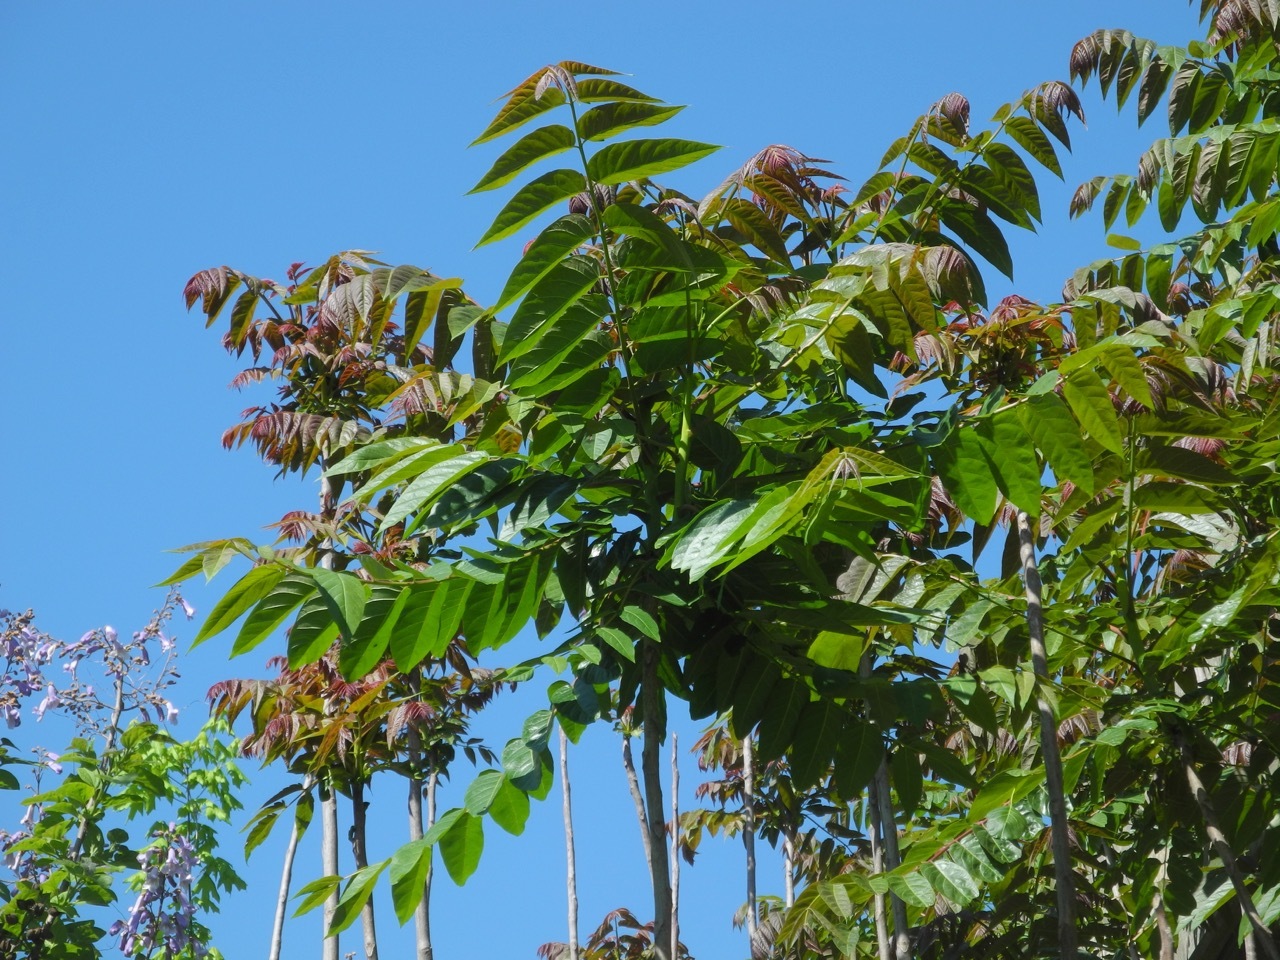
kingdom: Plantae
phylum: Tracheophyta
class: Magnoliopsida
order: Sapindales
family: Simaroubaceae
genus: Ailanthus
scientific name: Ailanthus altissima
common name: Tree-of-heaven
